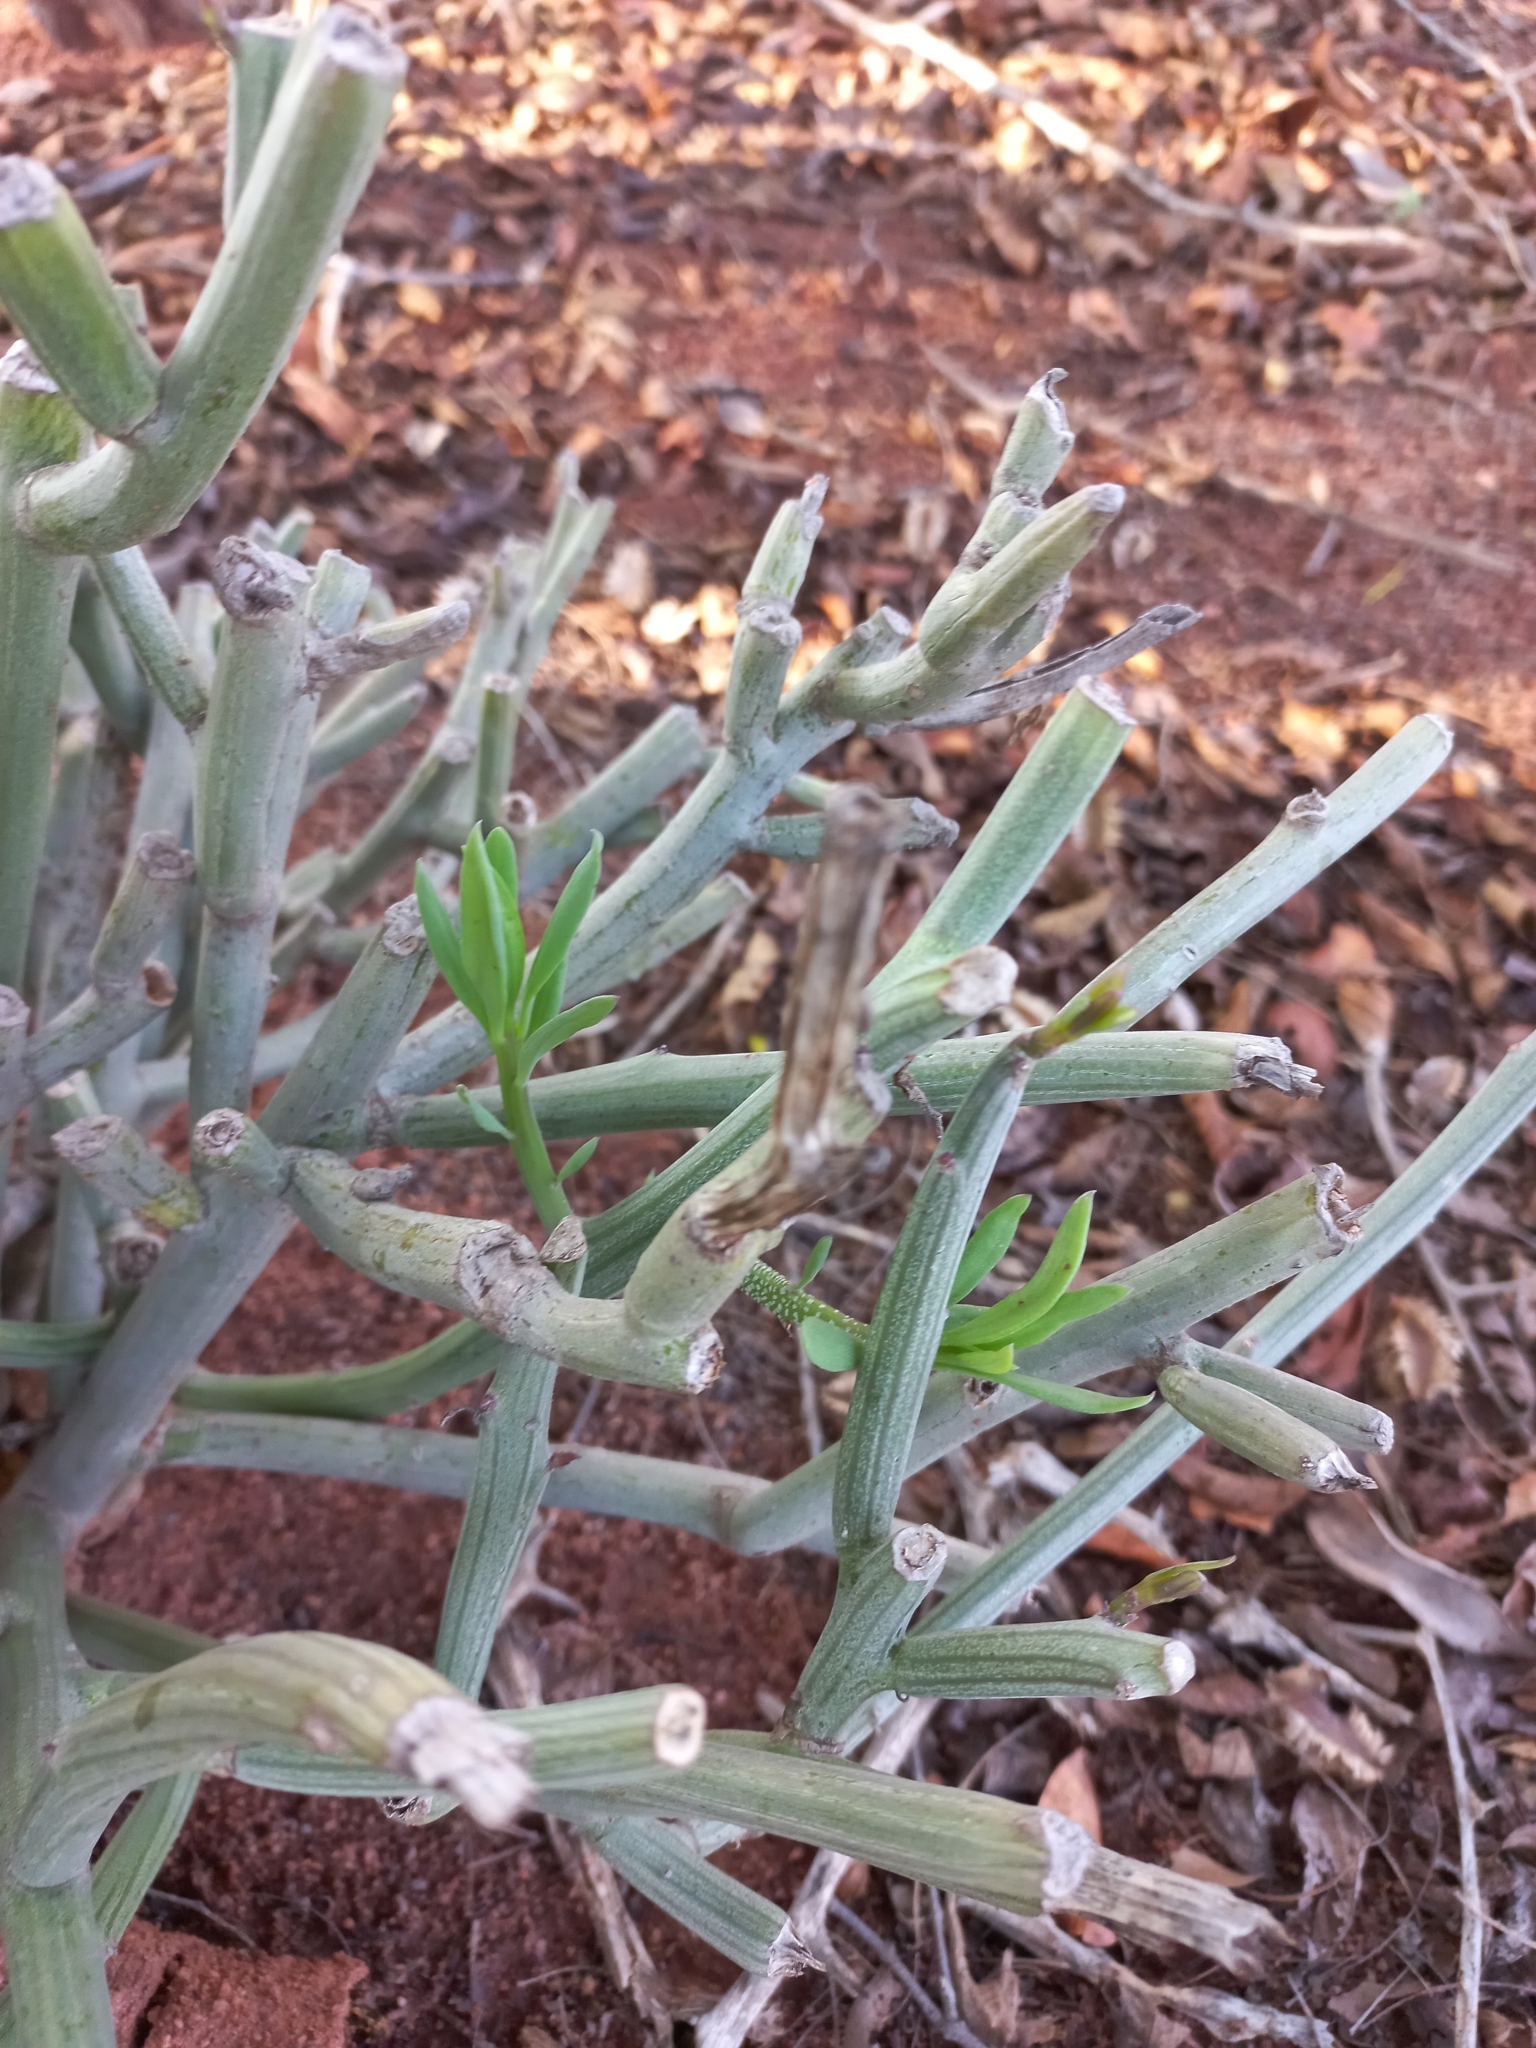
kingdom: Plantae
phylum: Tracheophyta
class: Magnoliopsida
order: Asterales
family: Asteraceae
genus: Curio
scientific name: Curio avasimontanus
